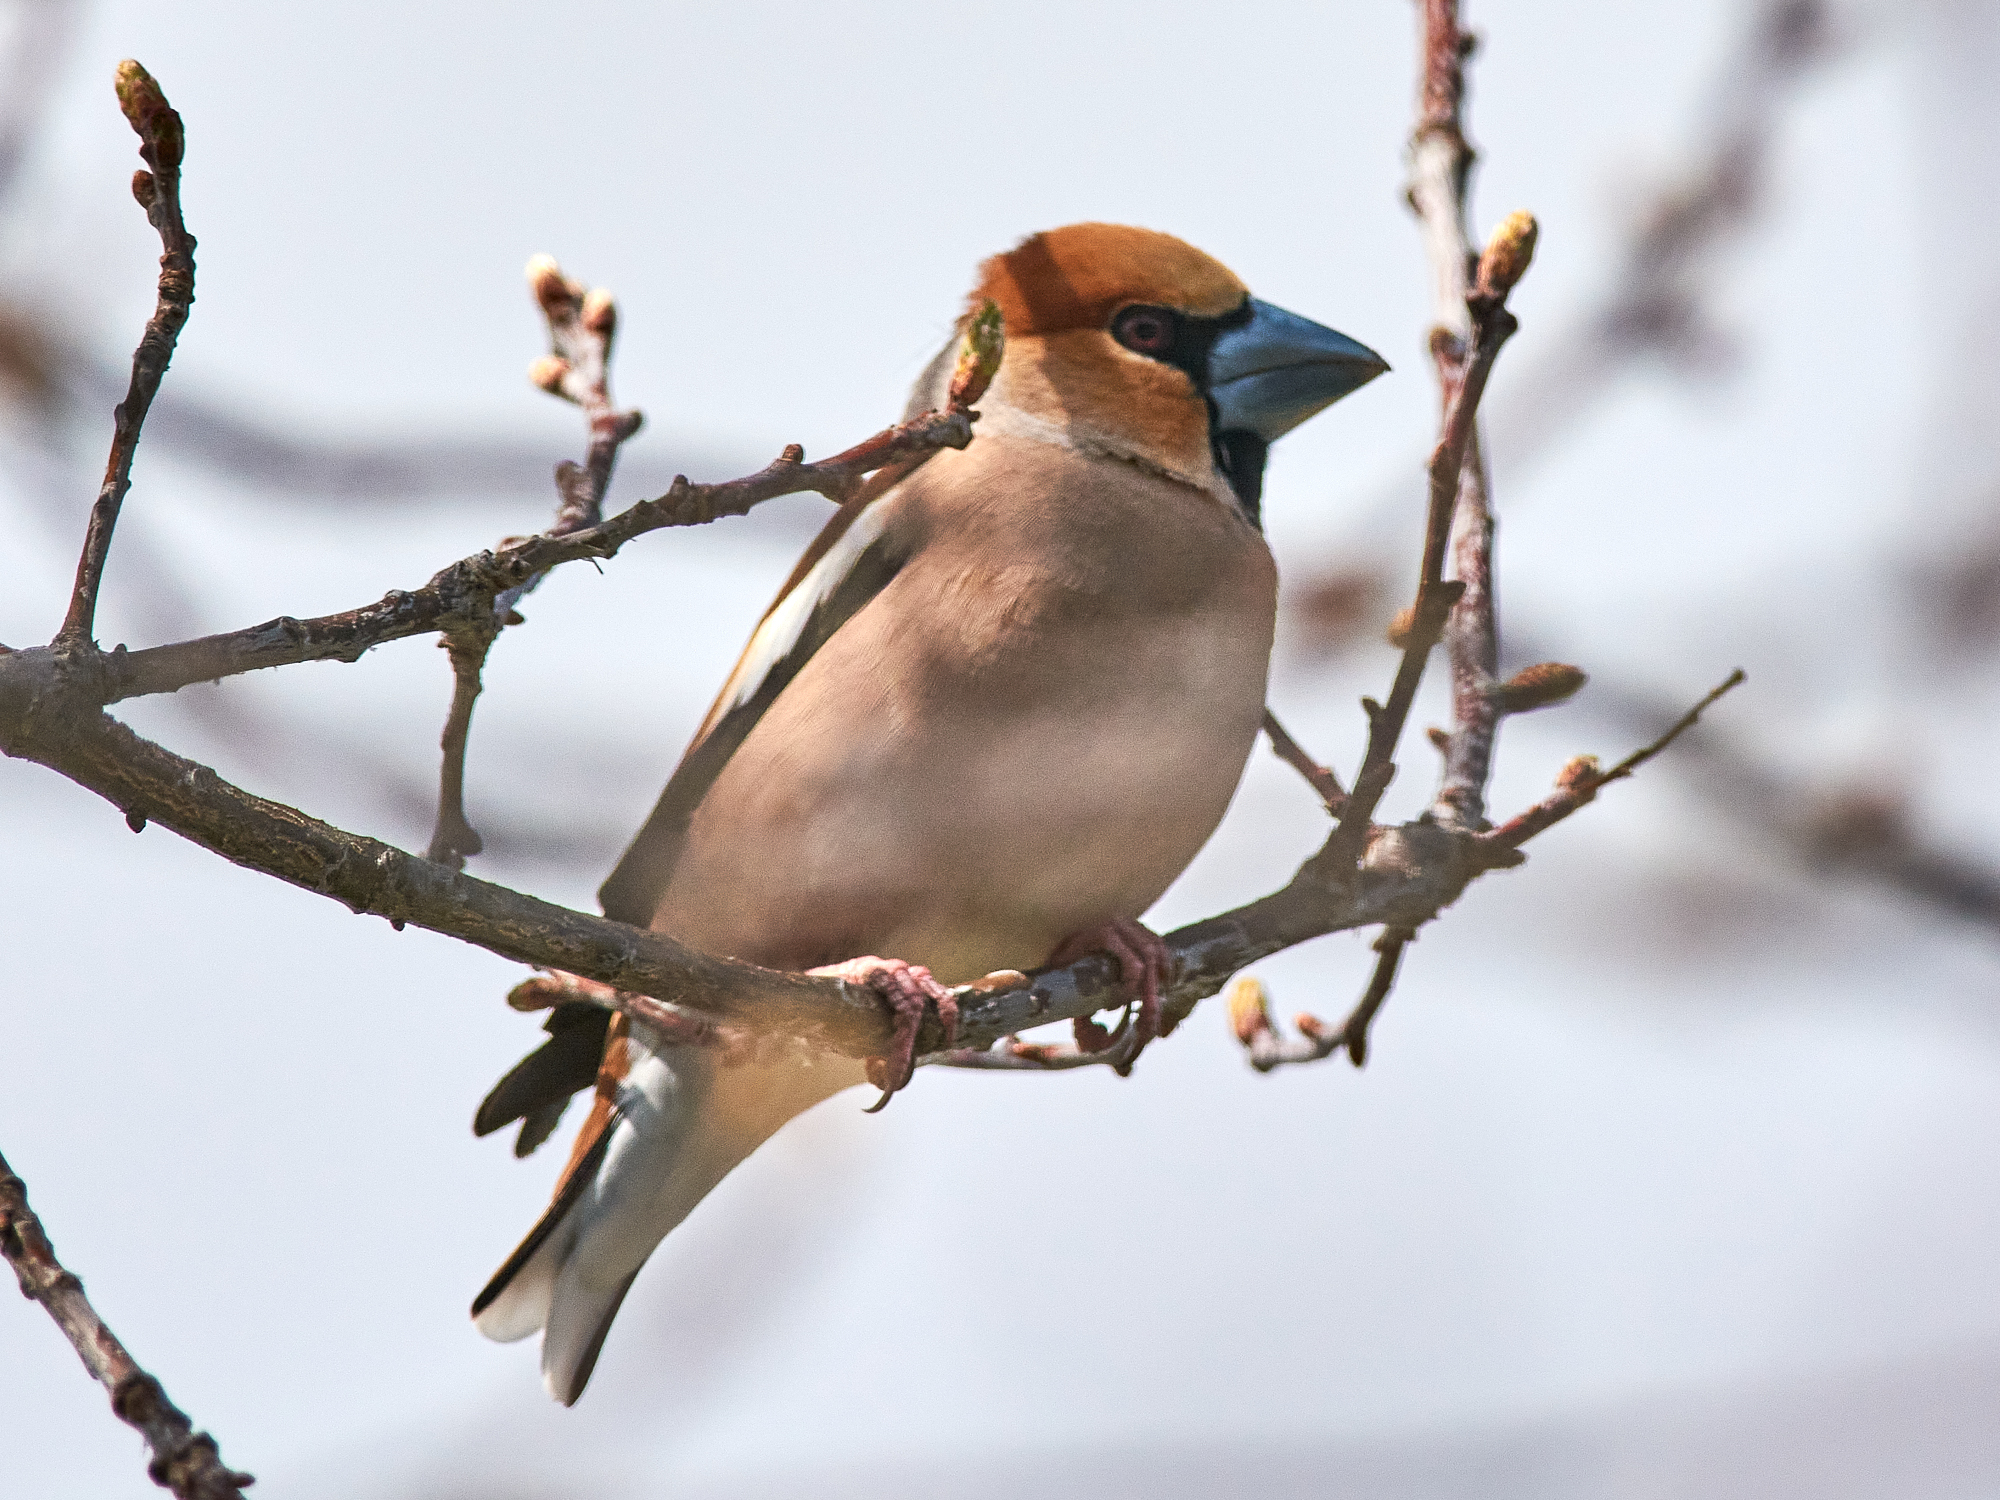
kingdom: Animalia
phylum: Chordata
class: Aves
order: Passeriformes
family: Fringillidae
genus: Coccothraustes
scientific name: Coccothraustes coccothraustes
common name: Hawfinch
